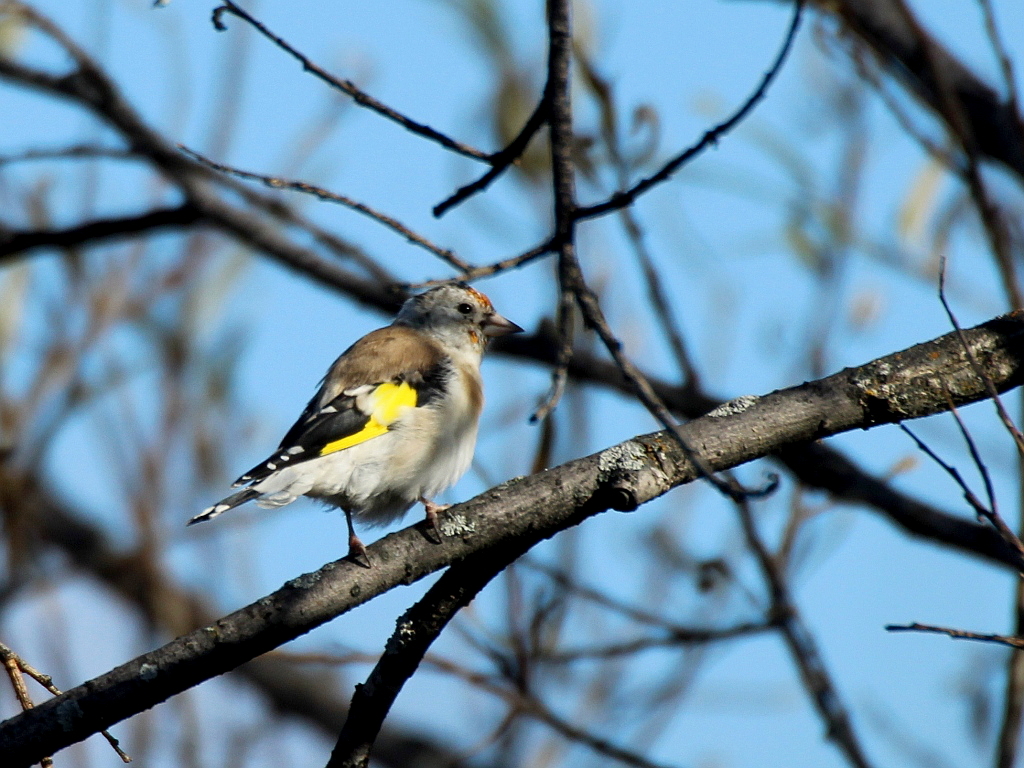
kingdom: Animalia
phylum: Chordata
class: Aves
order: Passeriformes
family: Fringillidae
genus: Carduelis
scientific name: Carduelis carduelis
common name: European goldfinch
